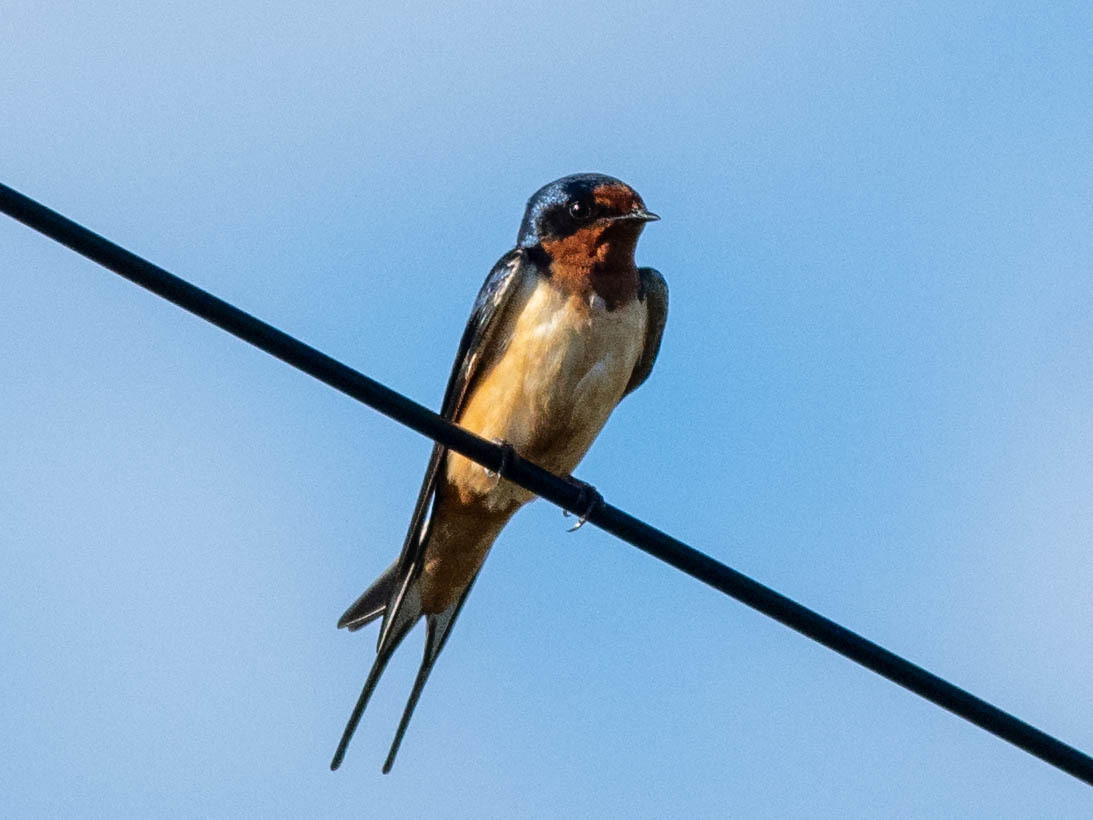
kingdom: Animalia
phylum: Chordata
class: Aves
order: Passeriformes
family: Hirundinidae
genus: Hirundo
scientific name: Hirundo rustica
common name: Barn swallow
